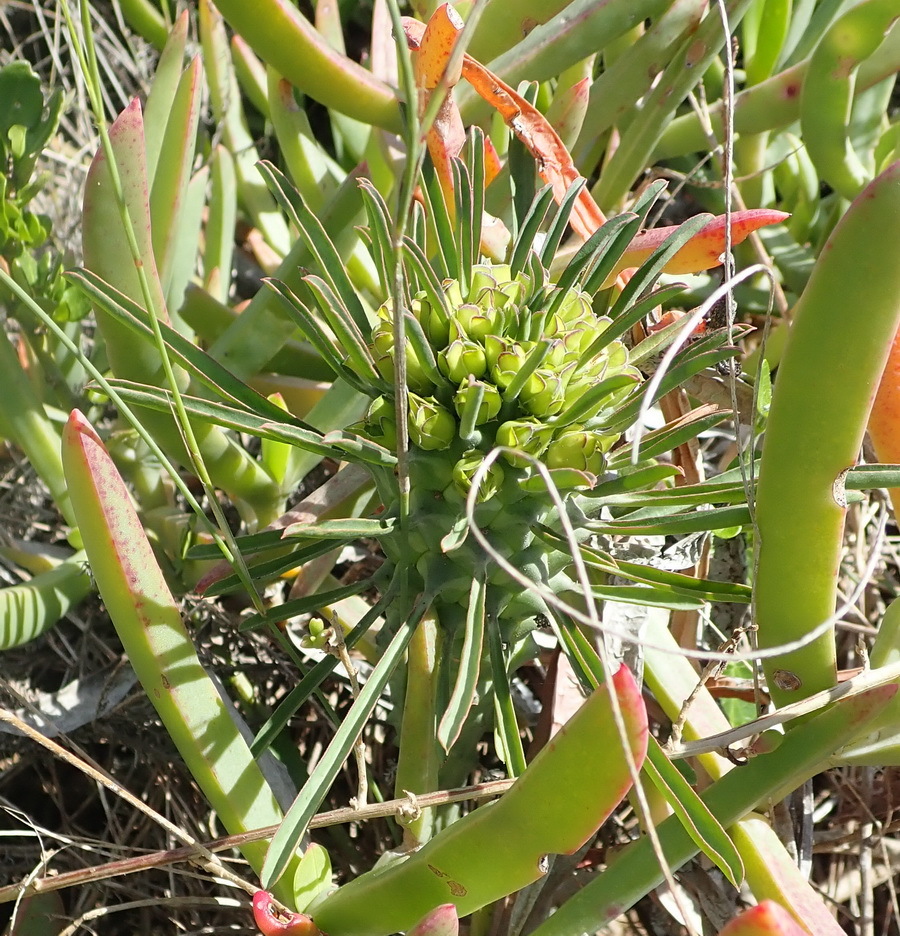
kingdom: Plantae
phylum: Tracheophyta
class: Magnoliopsida
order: Malpighiales
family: Euphorbiaceae
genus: Euphorbia
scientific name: Euphorbia clandestina
